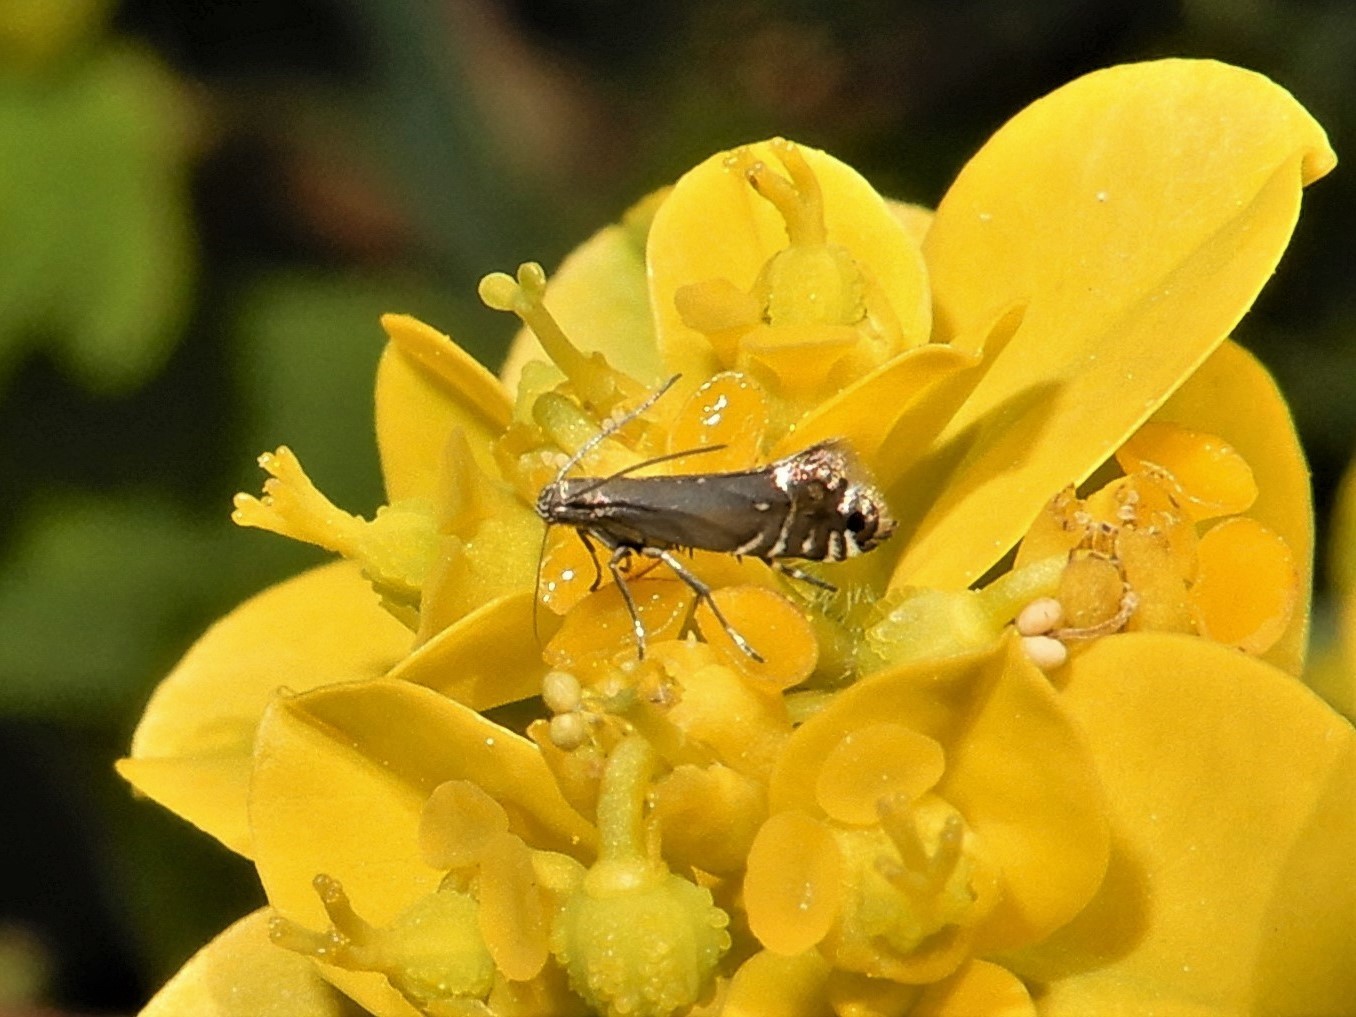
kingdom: Animalia
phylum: Arthropoda
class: Insecta
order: Lepidoptera
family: Glyphipterigidae
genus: Glyphipterix
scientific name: Glyphipterix simpliciella
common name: Cocksfoot moth
